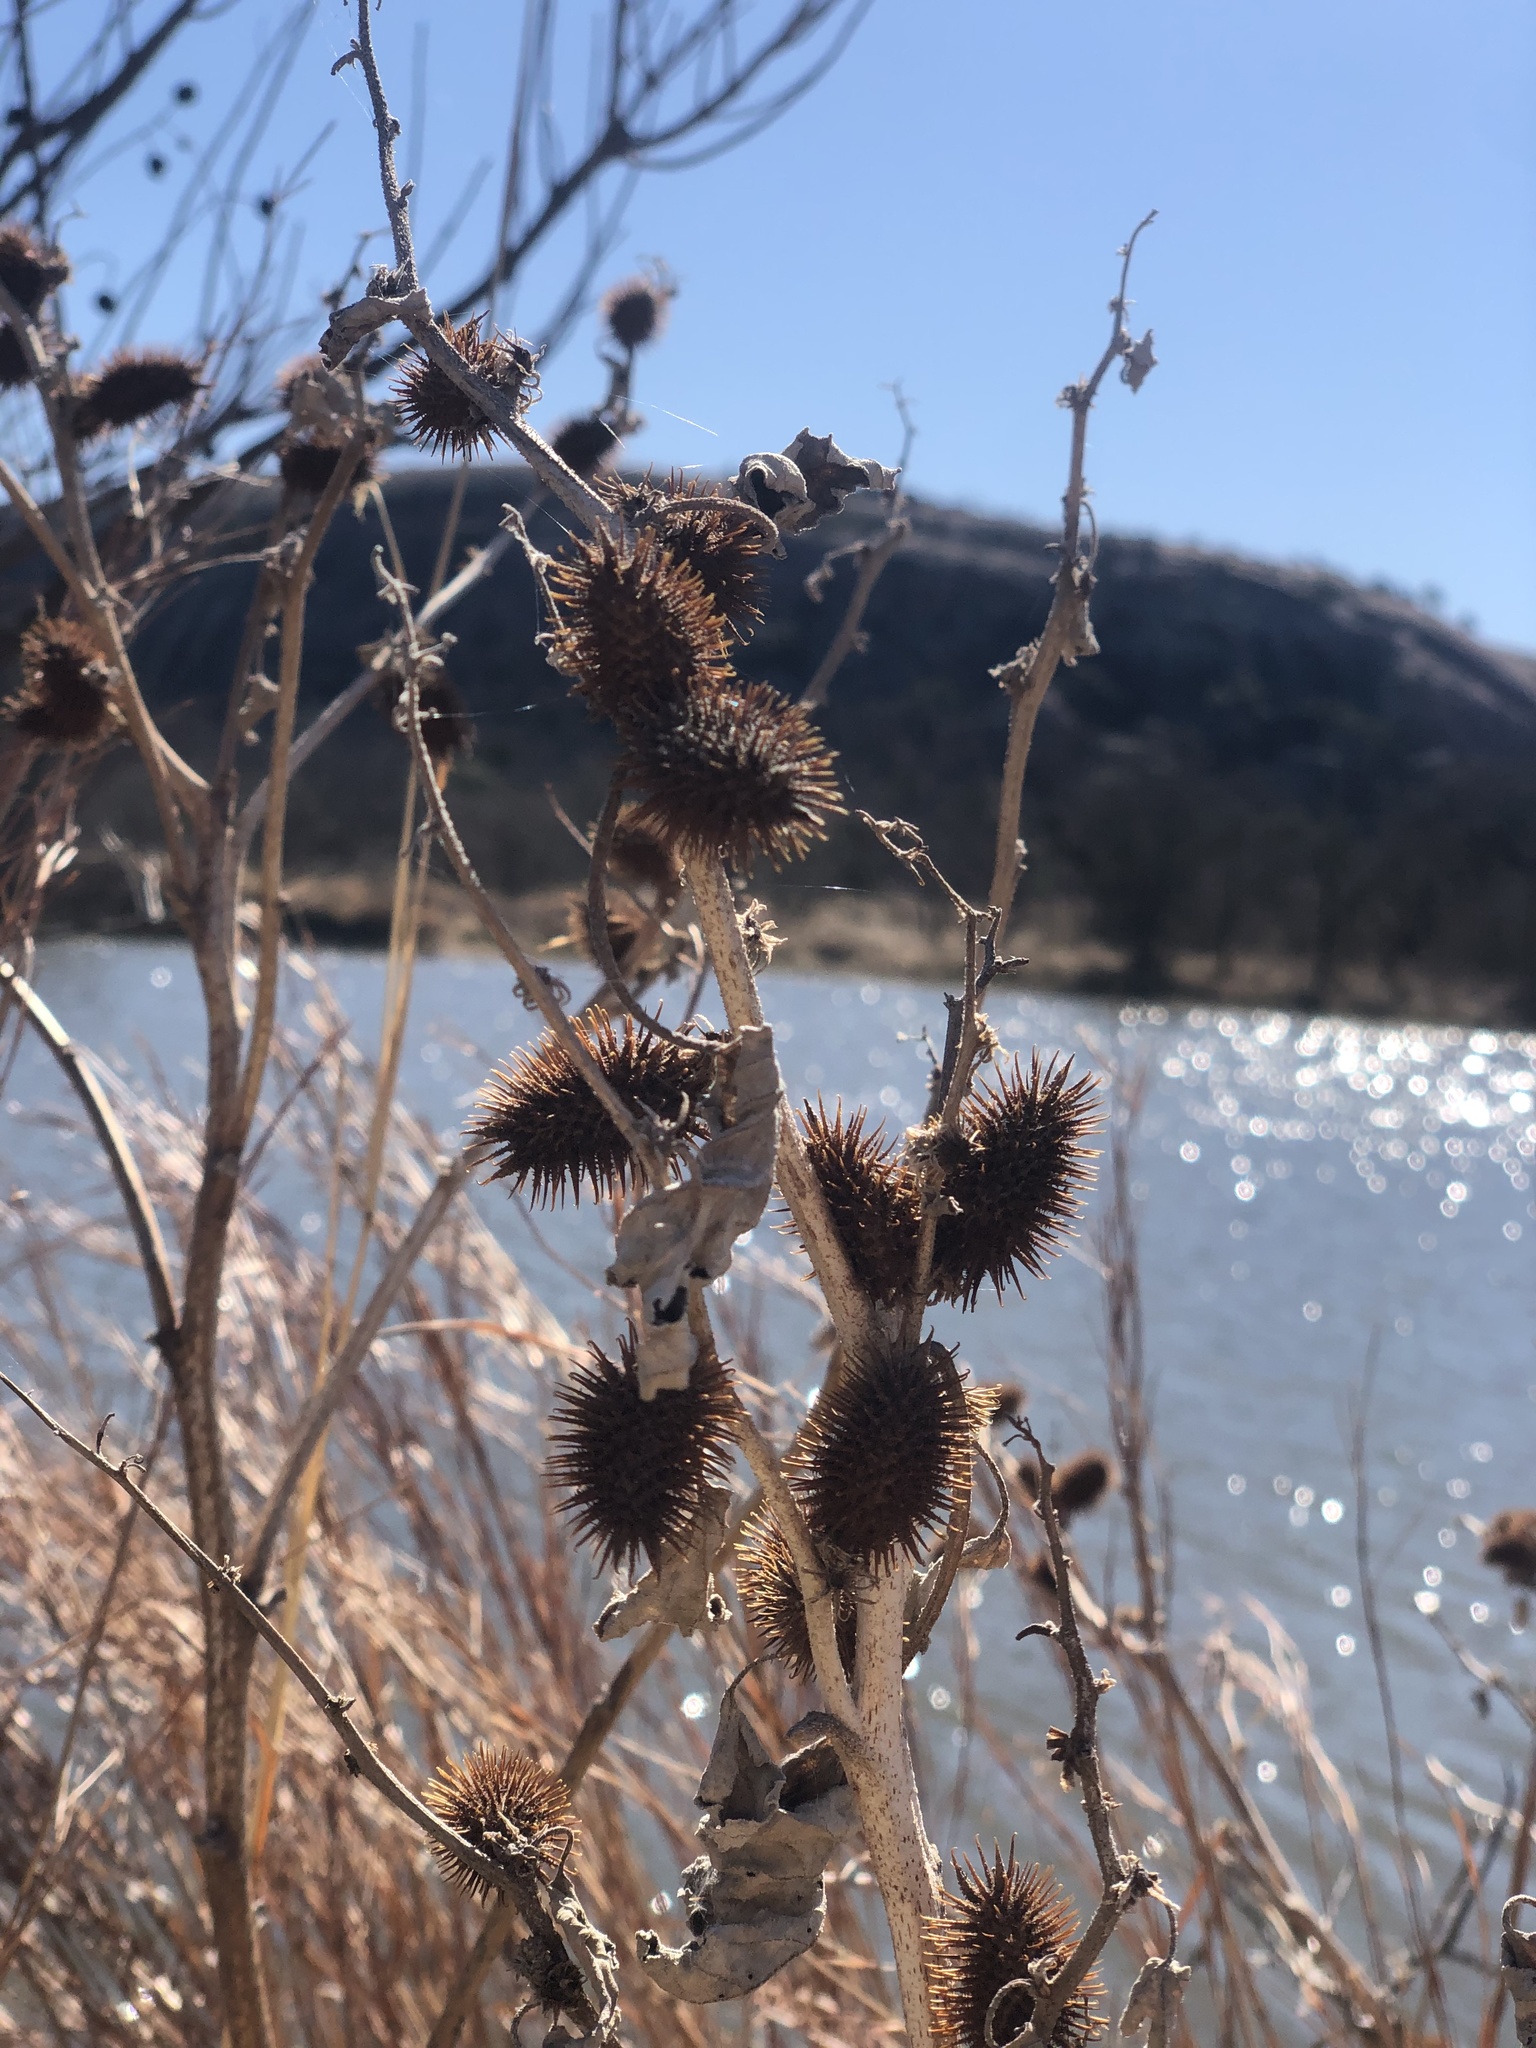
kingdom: Plantae
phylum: Tracheophyta
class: Magnoliopsida
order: Asterales
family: Asteraceae
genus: Xanthium
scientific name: Xanthium strumarium
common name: Rough cocklebur
